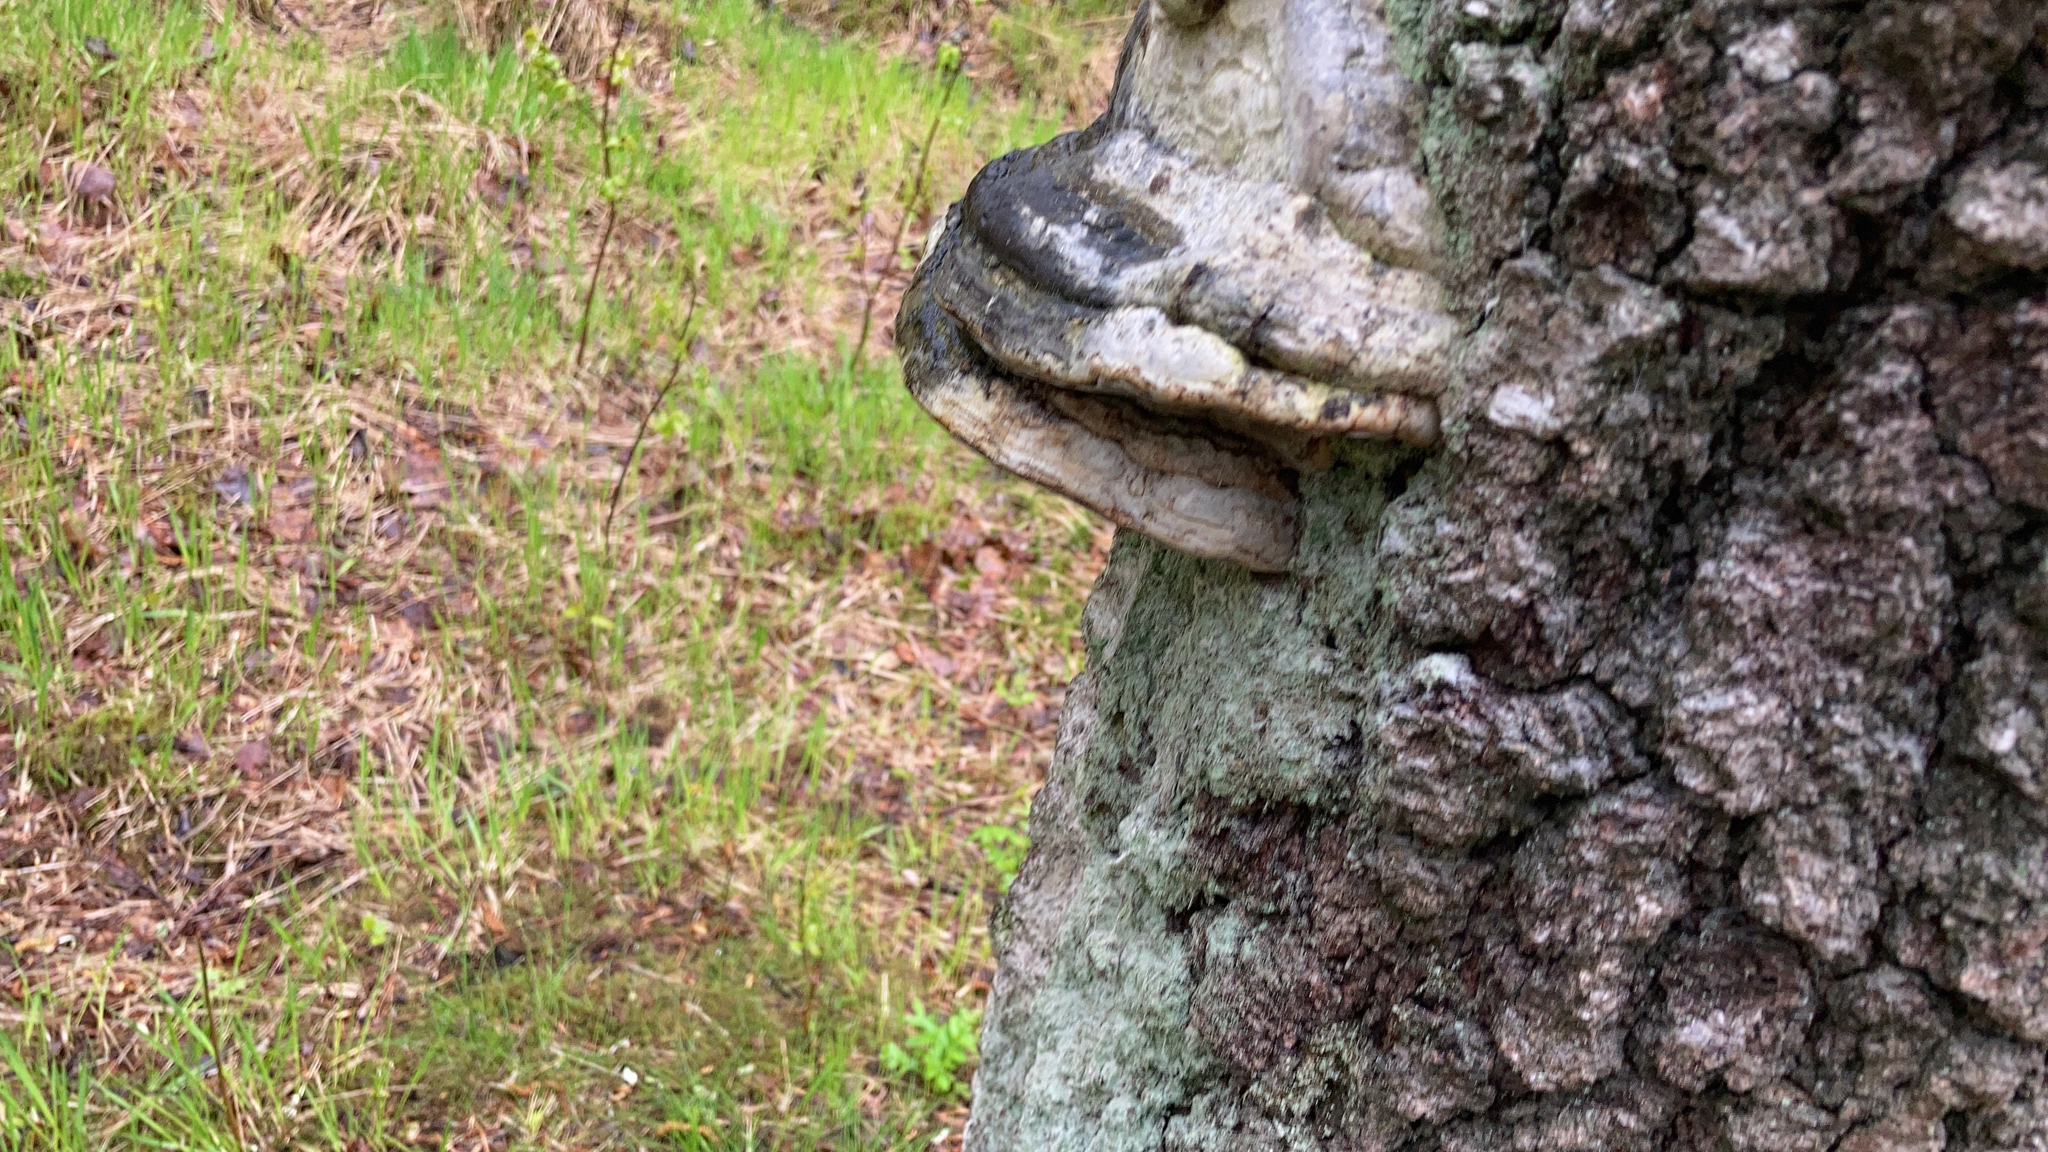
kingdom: Fungi
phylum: Basidiomycota
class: Agaricomycetes
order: Polyporales
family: Polyporaceae
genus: Fomes
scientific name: Fomes fomentarius
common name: Hoof fungus
